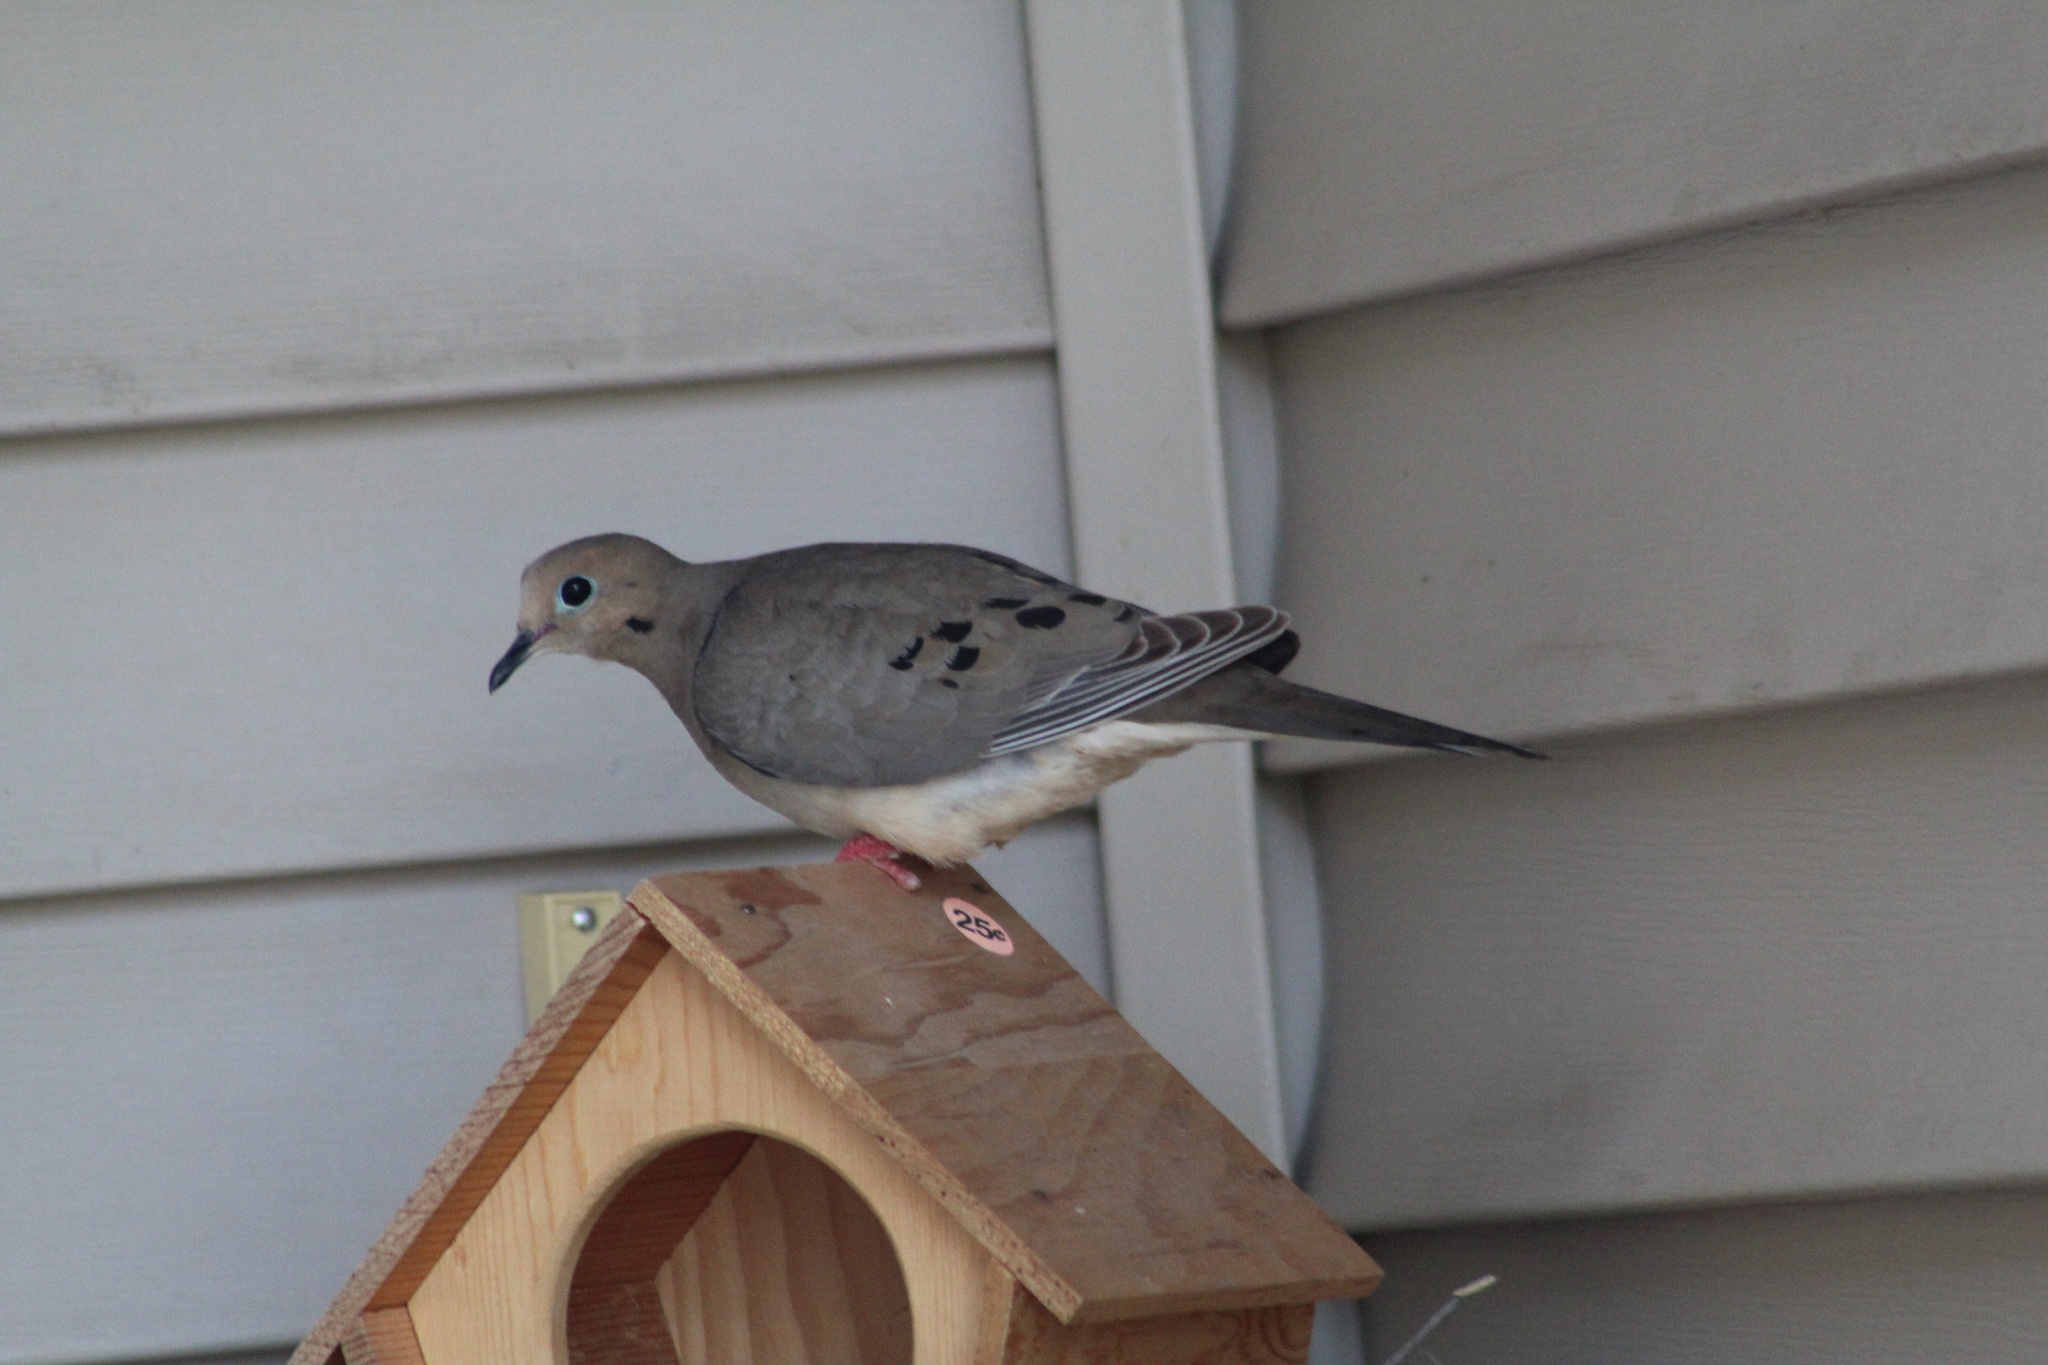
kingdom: Animalia
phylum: Chordata
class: Aves
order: Columbiformes
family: Columbidae
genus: Zenaida
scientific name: Zenaida macroura
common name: Mourning dove
